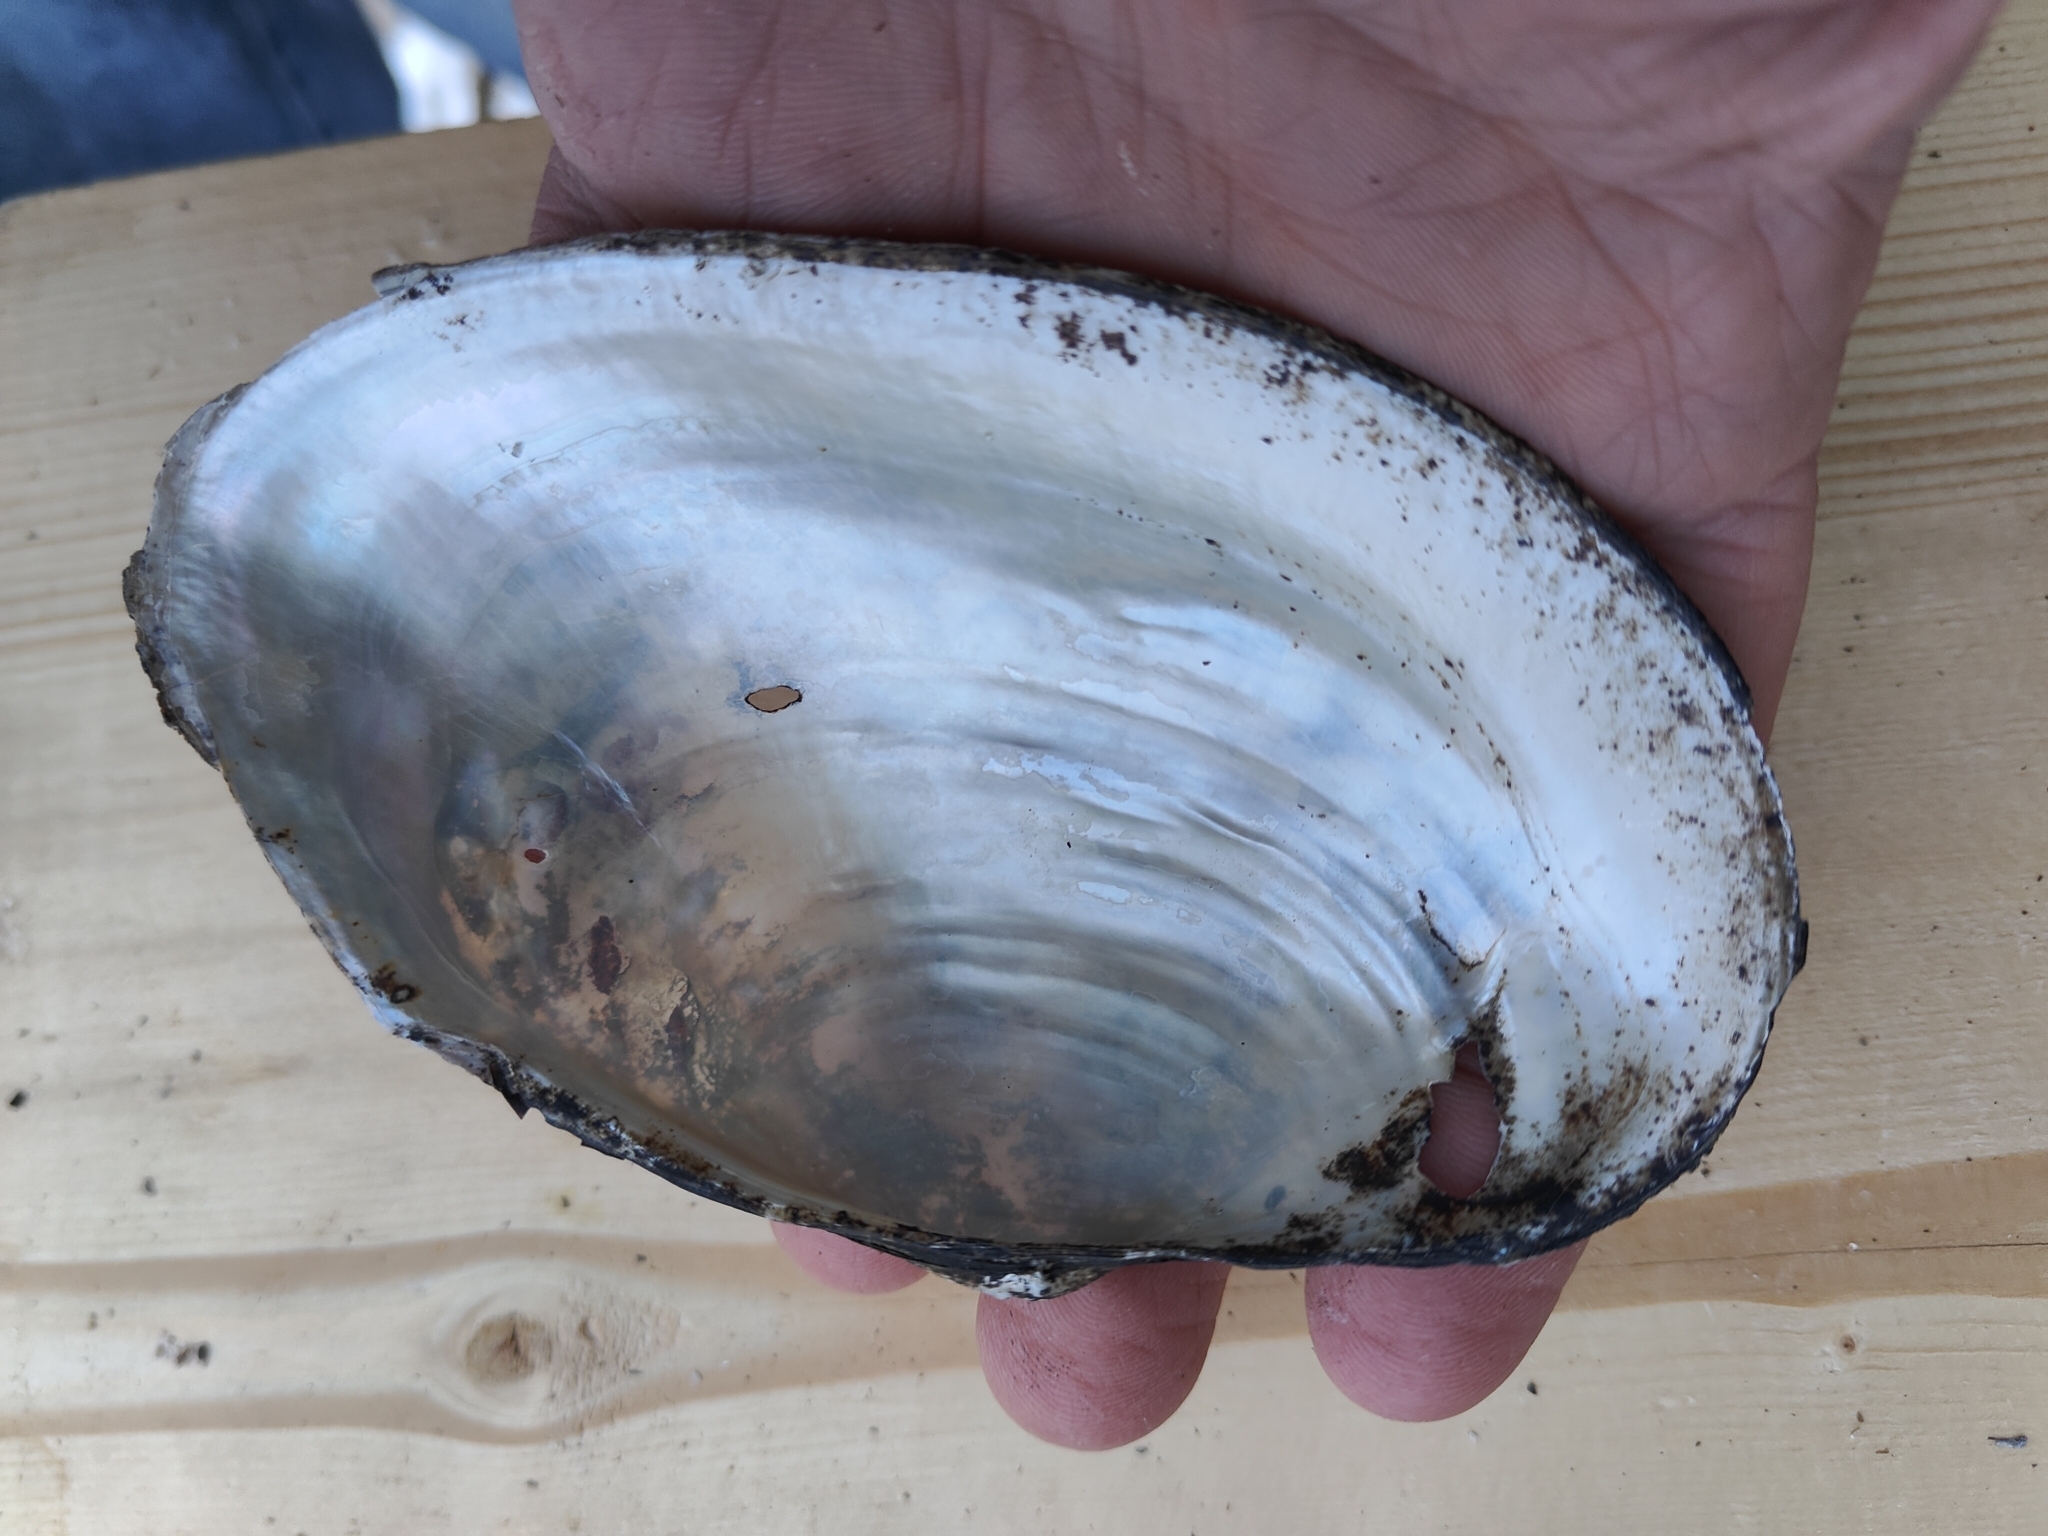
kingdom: Animalia
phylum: Mollusca
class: Bivalvia
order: Unionida
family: Unionidae
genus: Pyganodon
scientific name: Pyganodon grandis
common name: Giant floater
